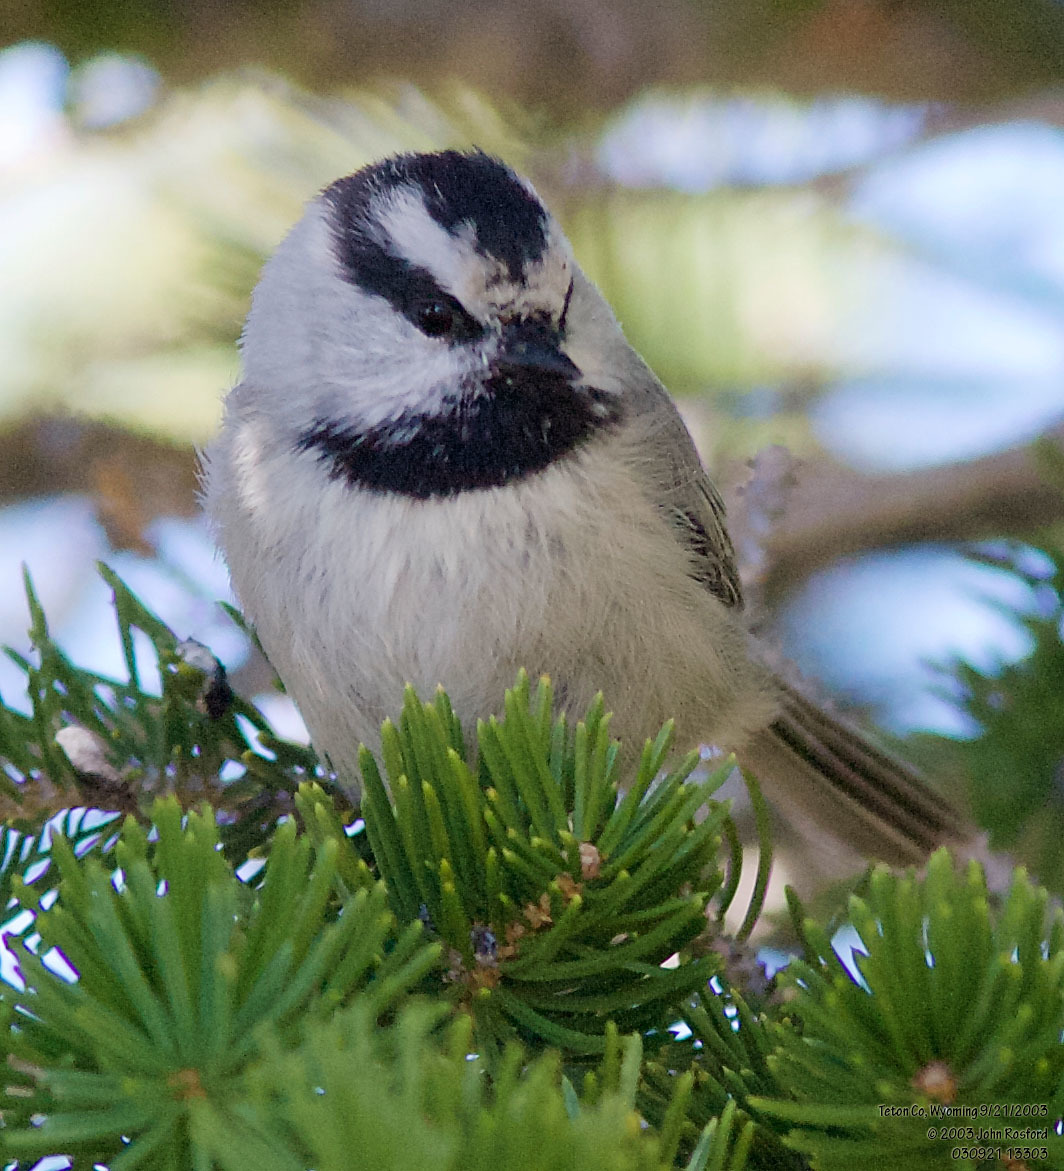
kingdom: Animalia
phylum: Chordata
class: Aves
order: Passeriformes
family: Paridae
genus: Poecile
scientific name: Poecile gambeli
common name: Mountain chickadee
